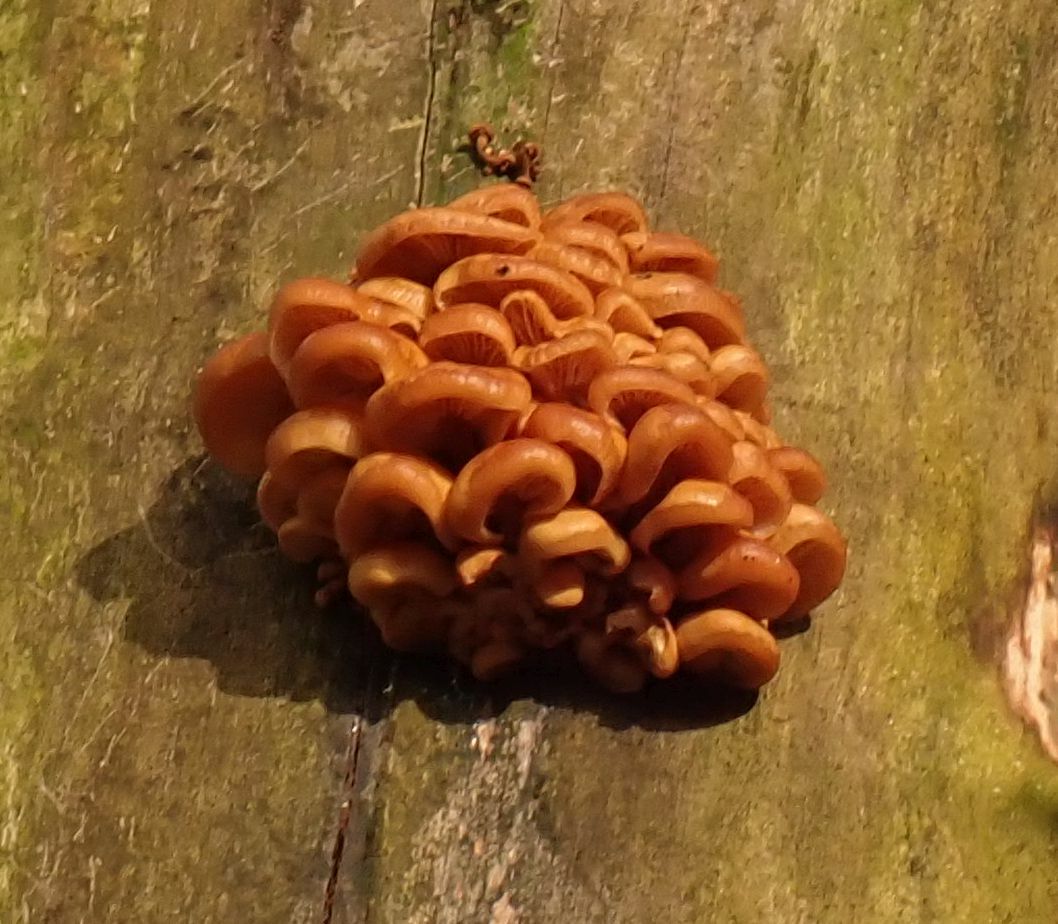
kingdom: Fungi
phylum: Basidiomycota
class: Agaricomycetes
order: Agaricales
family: Physalacriaceae
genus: Flammulina
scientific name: Flammulina
